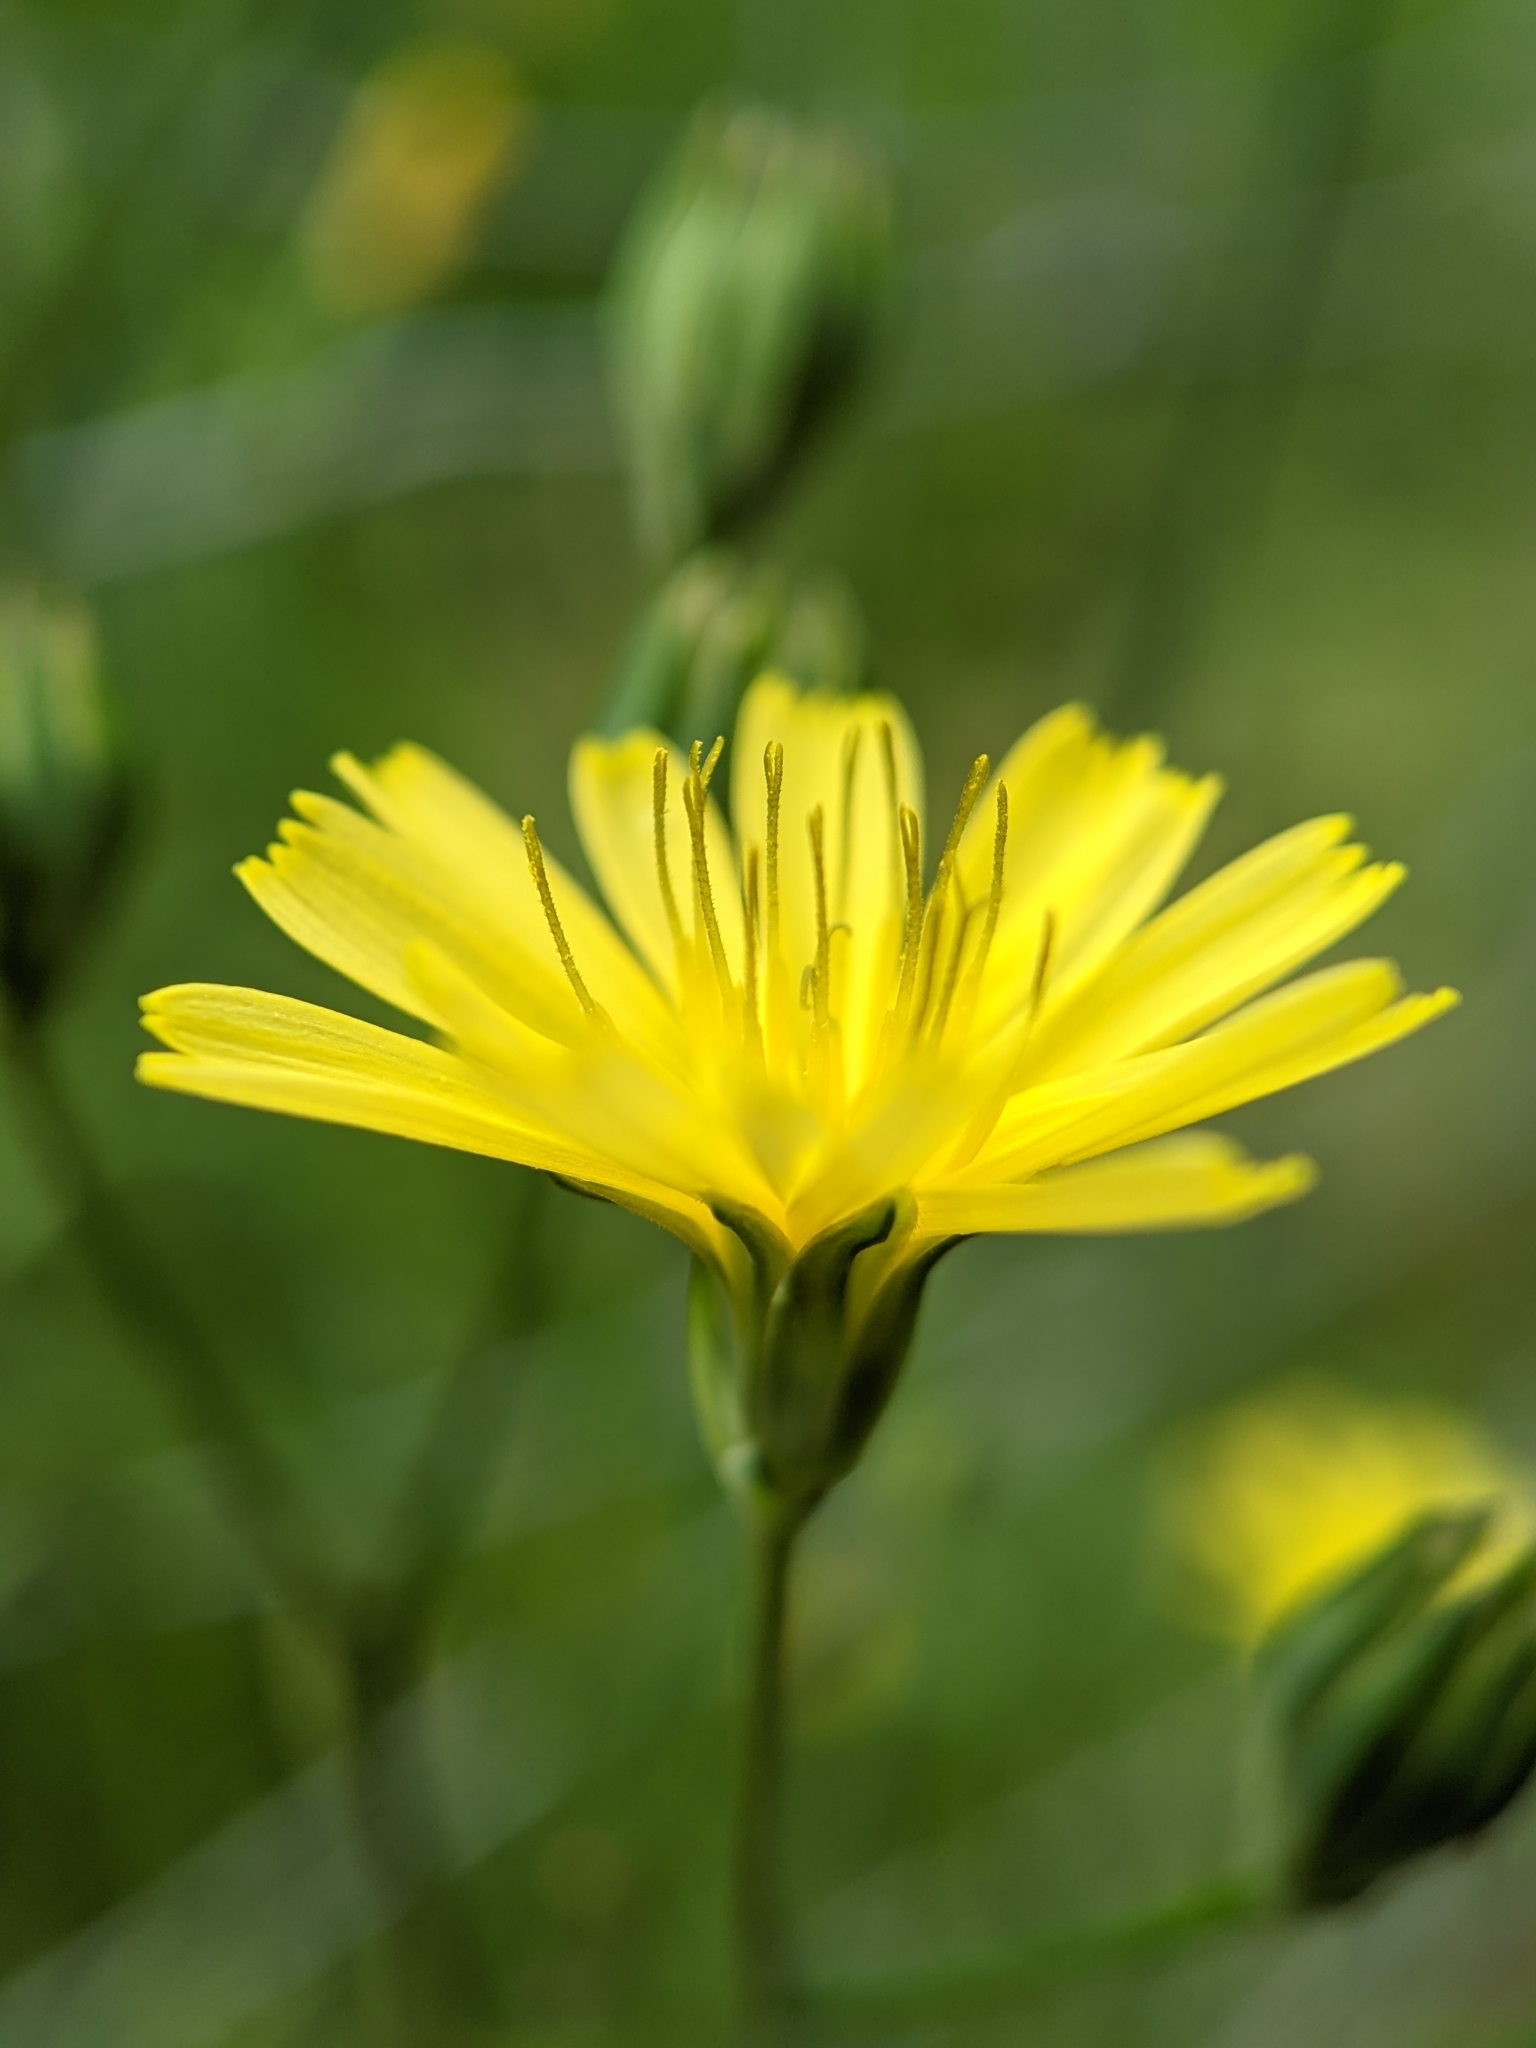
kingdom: Plantae
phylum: Tracheophyta
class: Magnoliopsida
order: Asterales
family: Asteraceae
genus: Lapsana
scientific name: Lapsana communis
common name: Nipplewort
